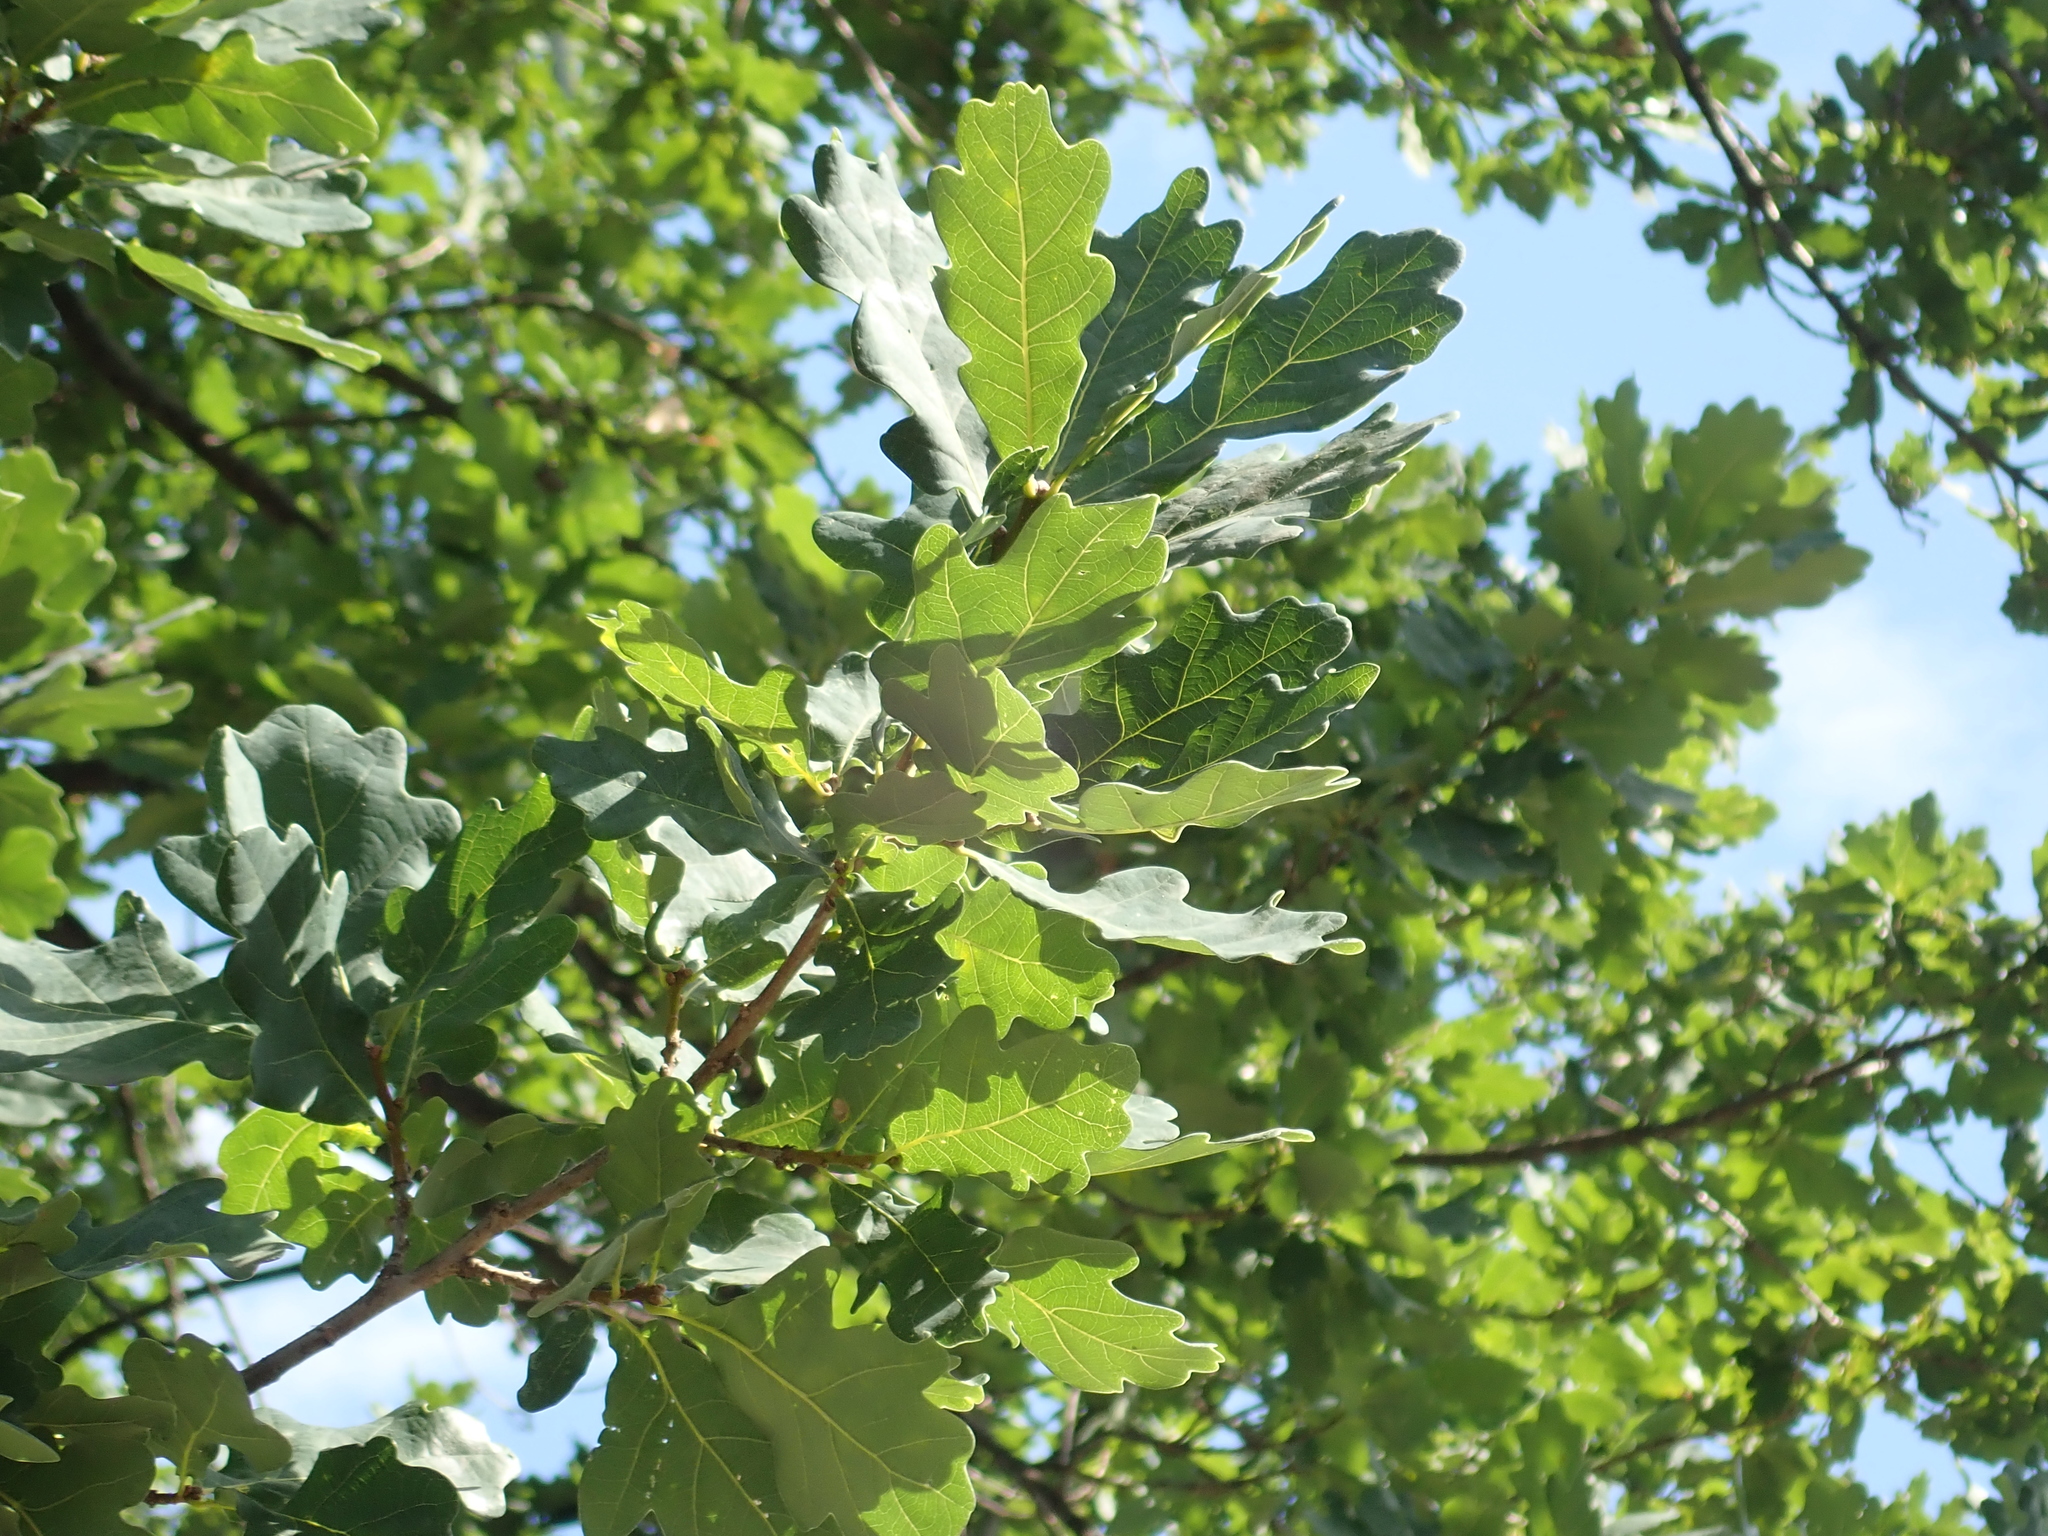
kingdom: Plantae
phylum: Tracheophyta
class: Magnoliopsida
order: Fagales
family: Fagaceae
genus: Quercus
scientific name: Quercus robur
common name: Pedunculate oak
